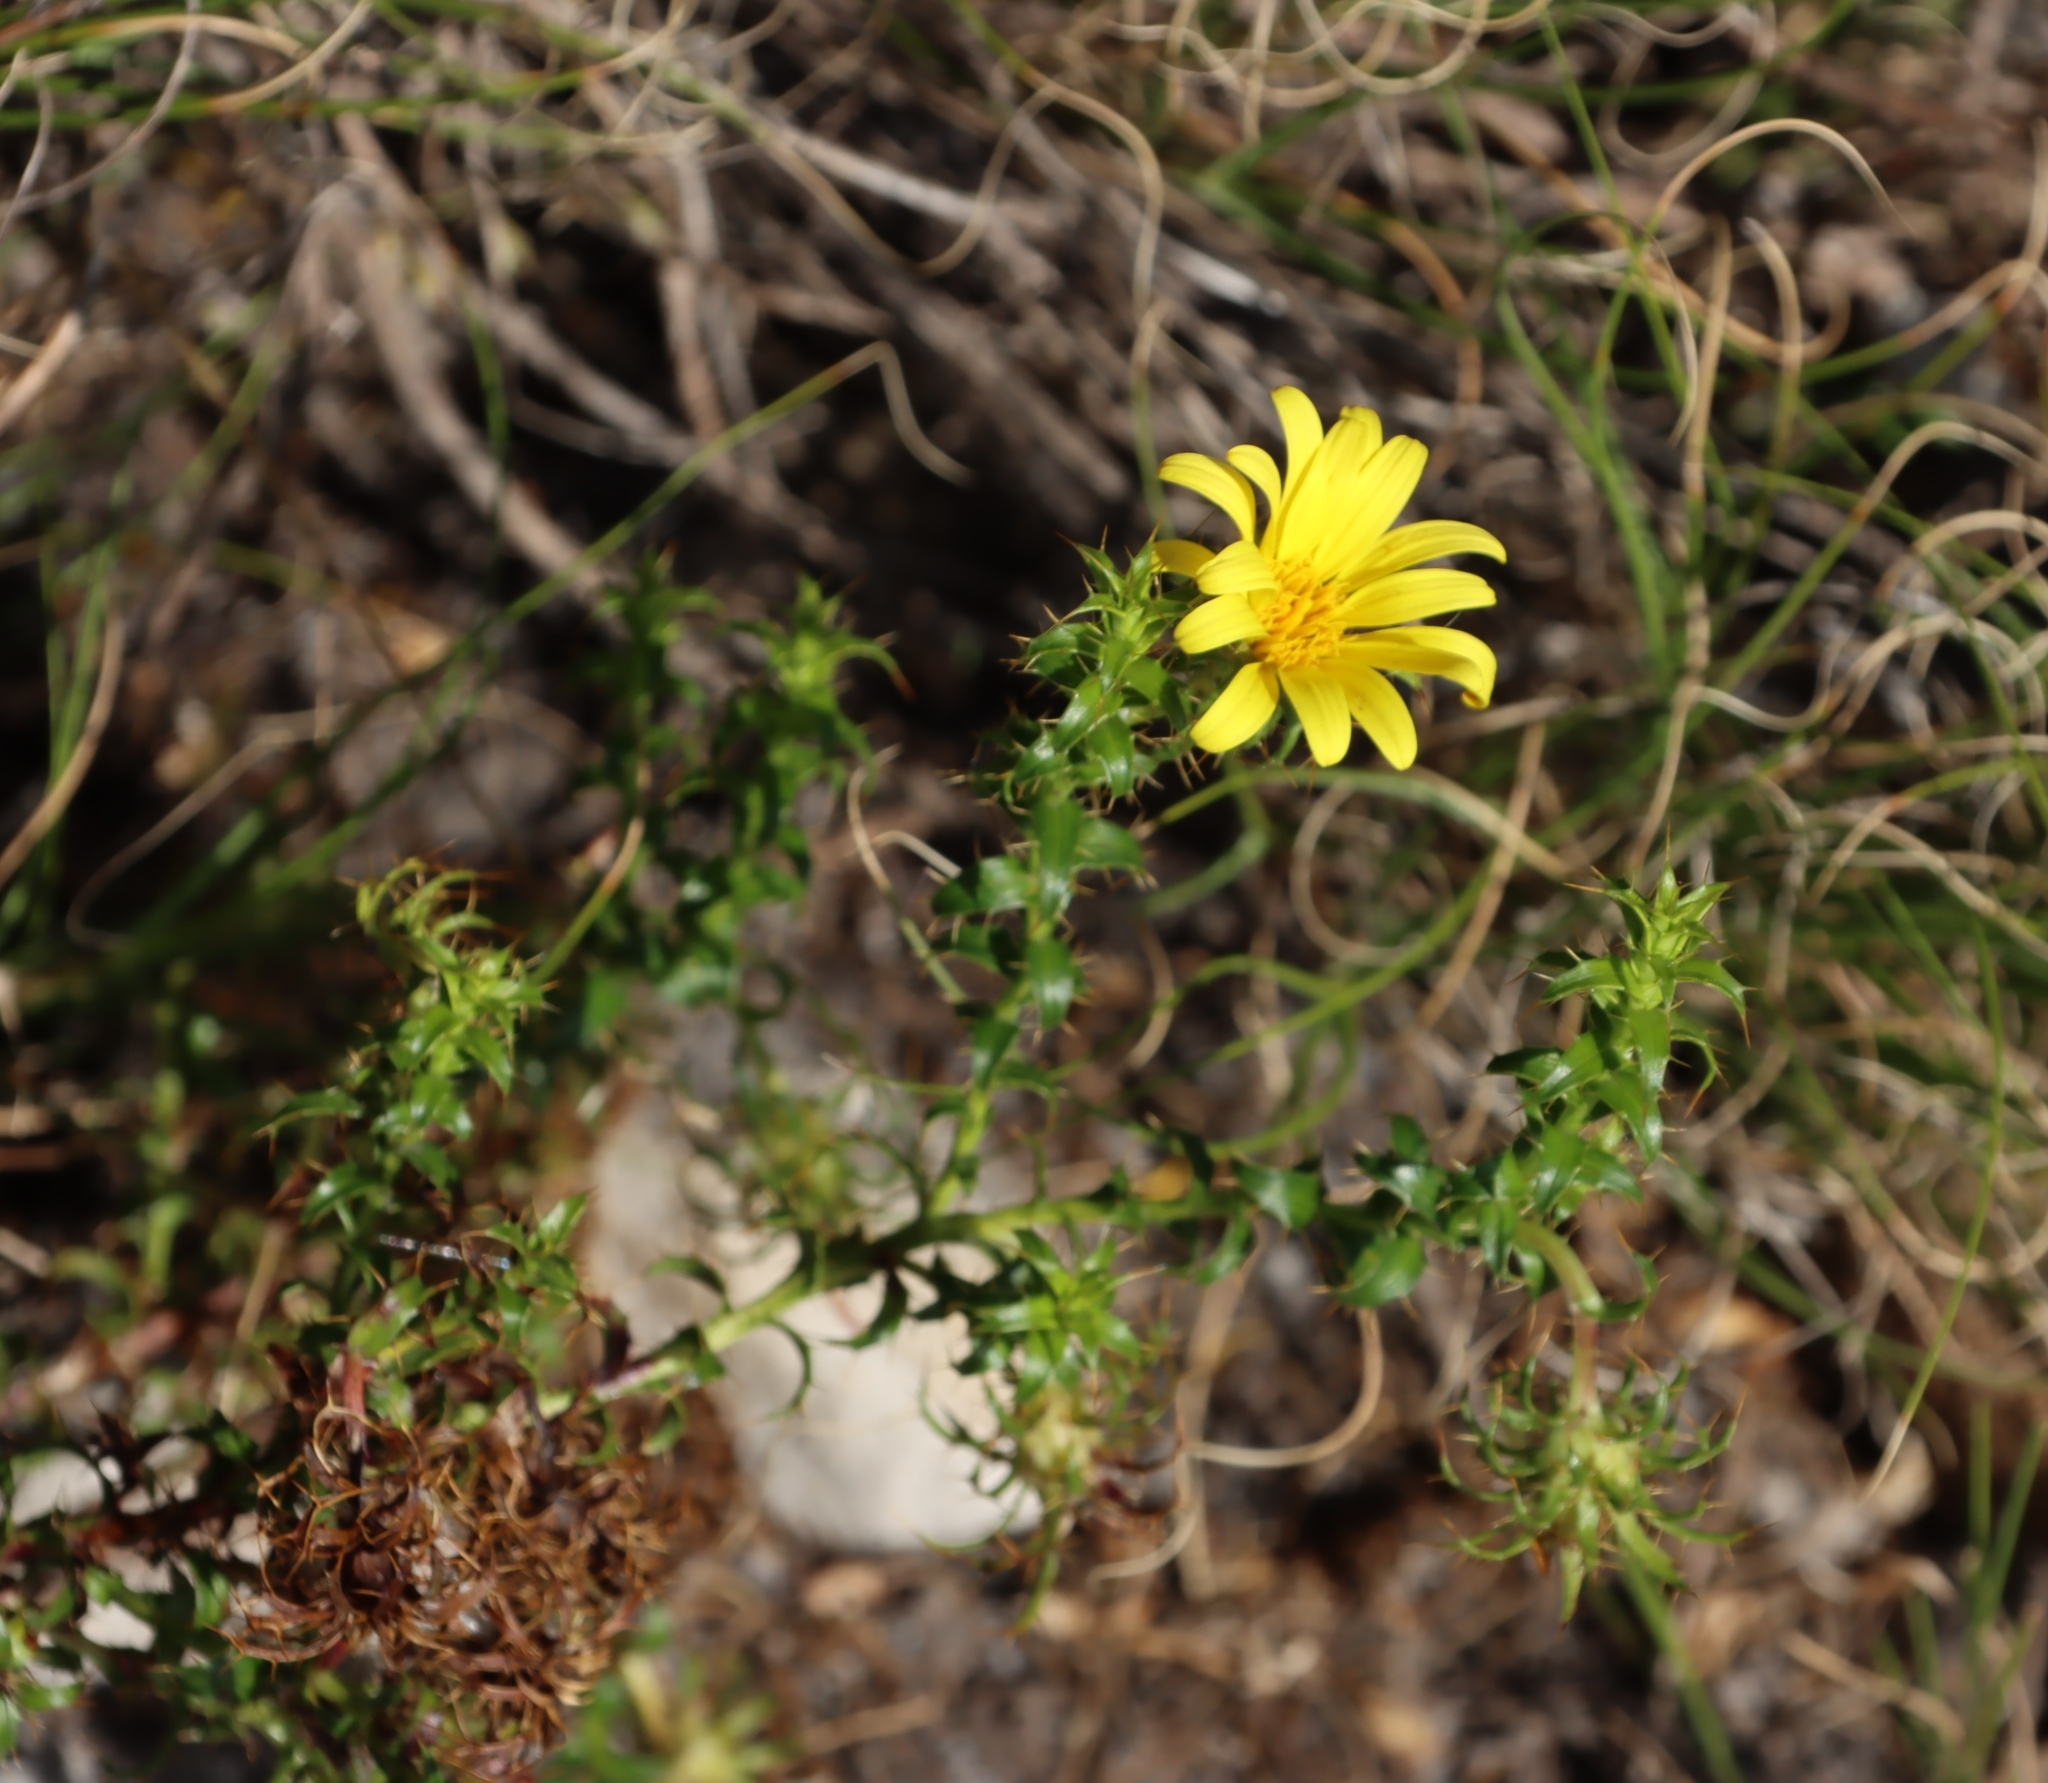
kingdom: Plantae
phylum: Tracheophyta
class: Magnoliopsida
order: Asterales
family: Asteraceae
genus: Cullumia
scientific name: Cullumia setosa
